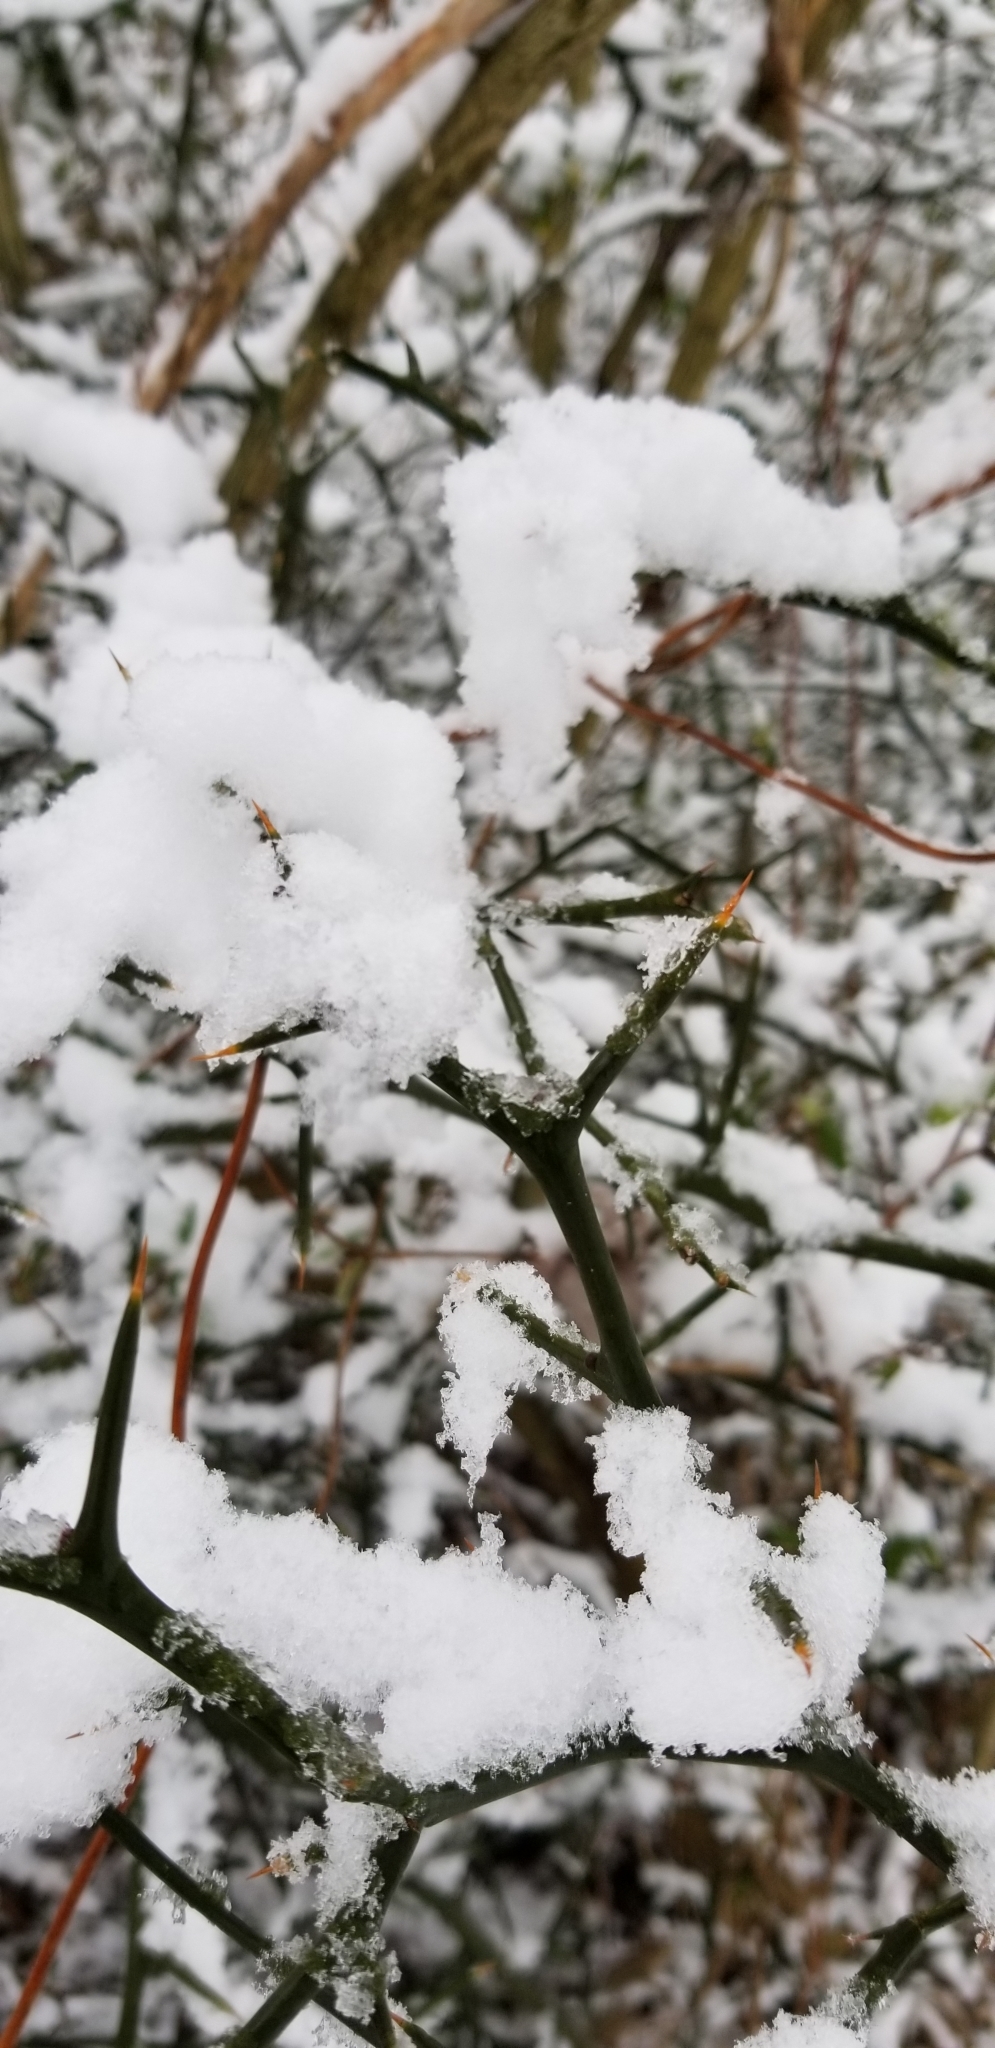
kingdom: Plantae
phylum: Tracheophyta
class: Magnoliopsida
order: Sapindales
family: Rutaceae
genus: Citrus
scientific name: Citrus trifoliata
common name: Japanese bitter-orange
